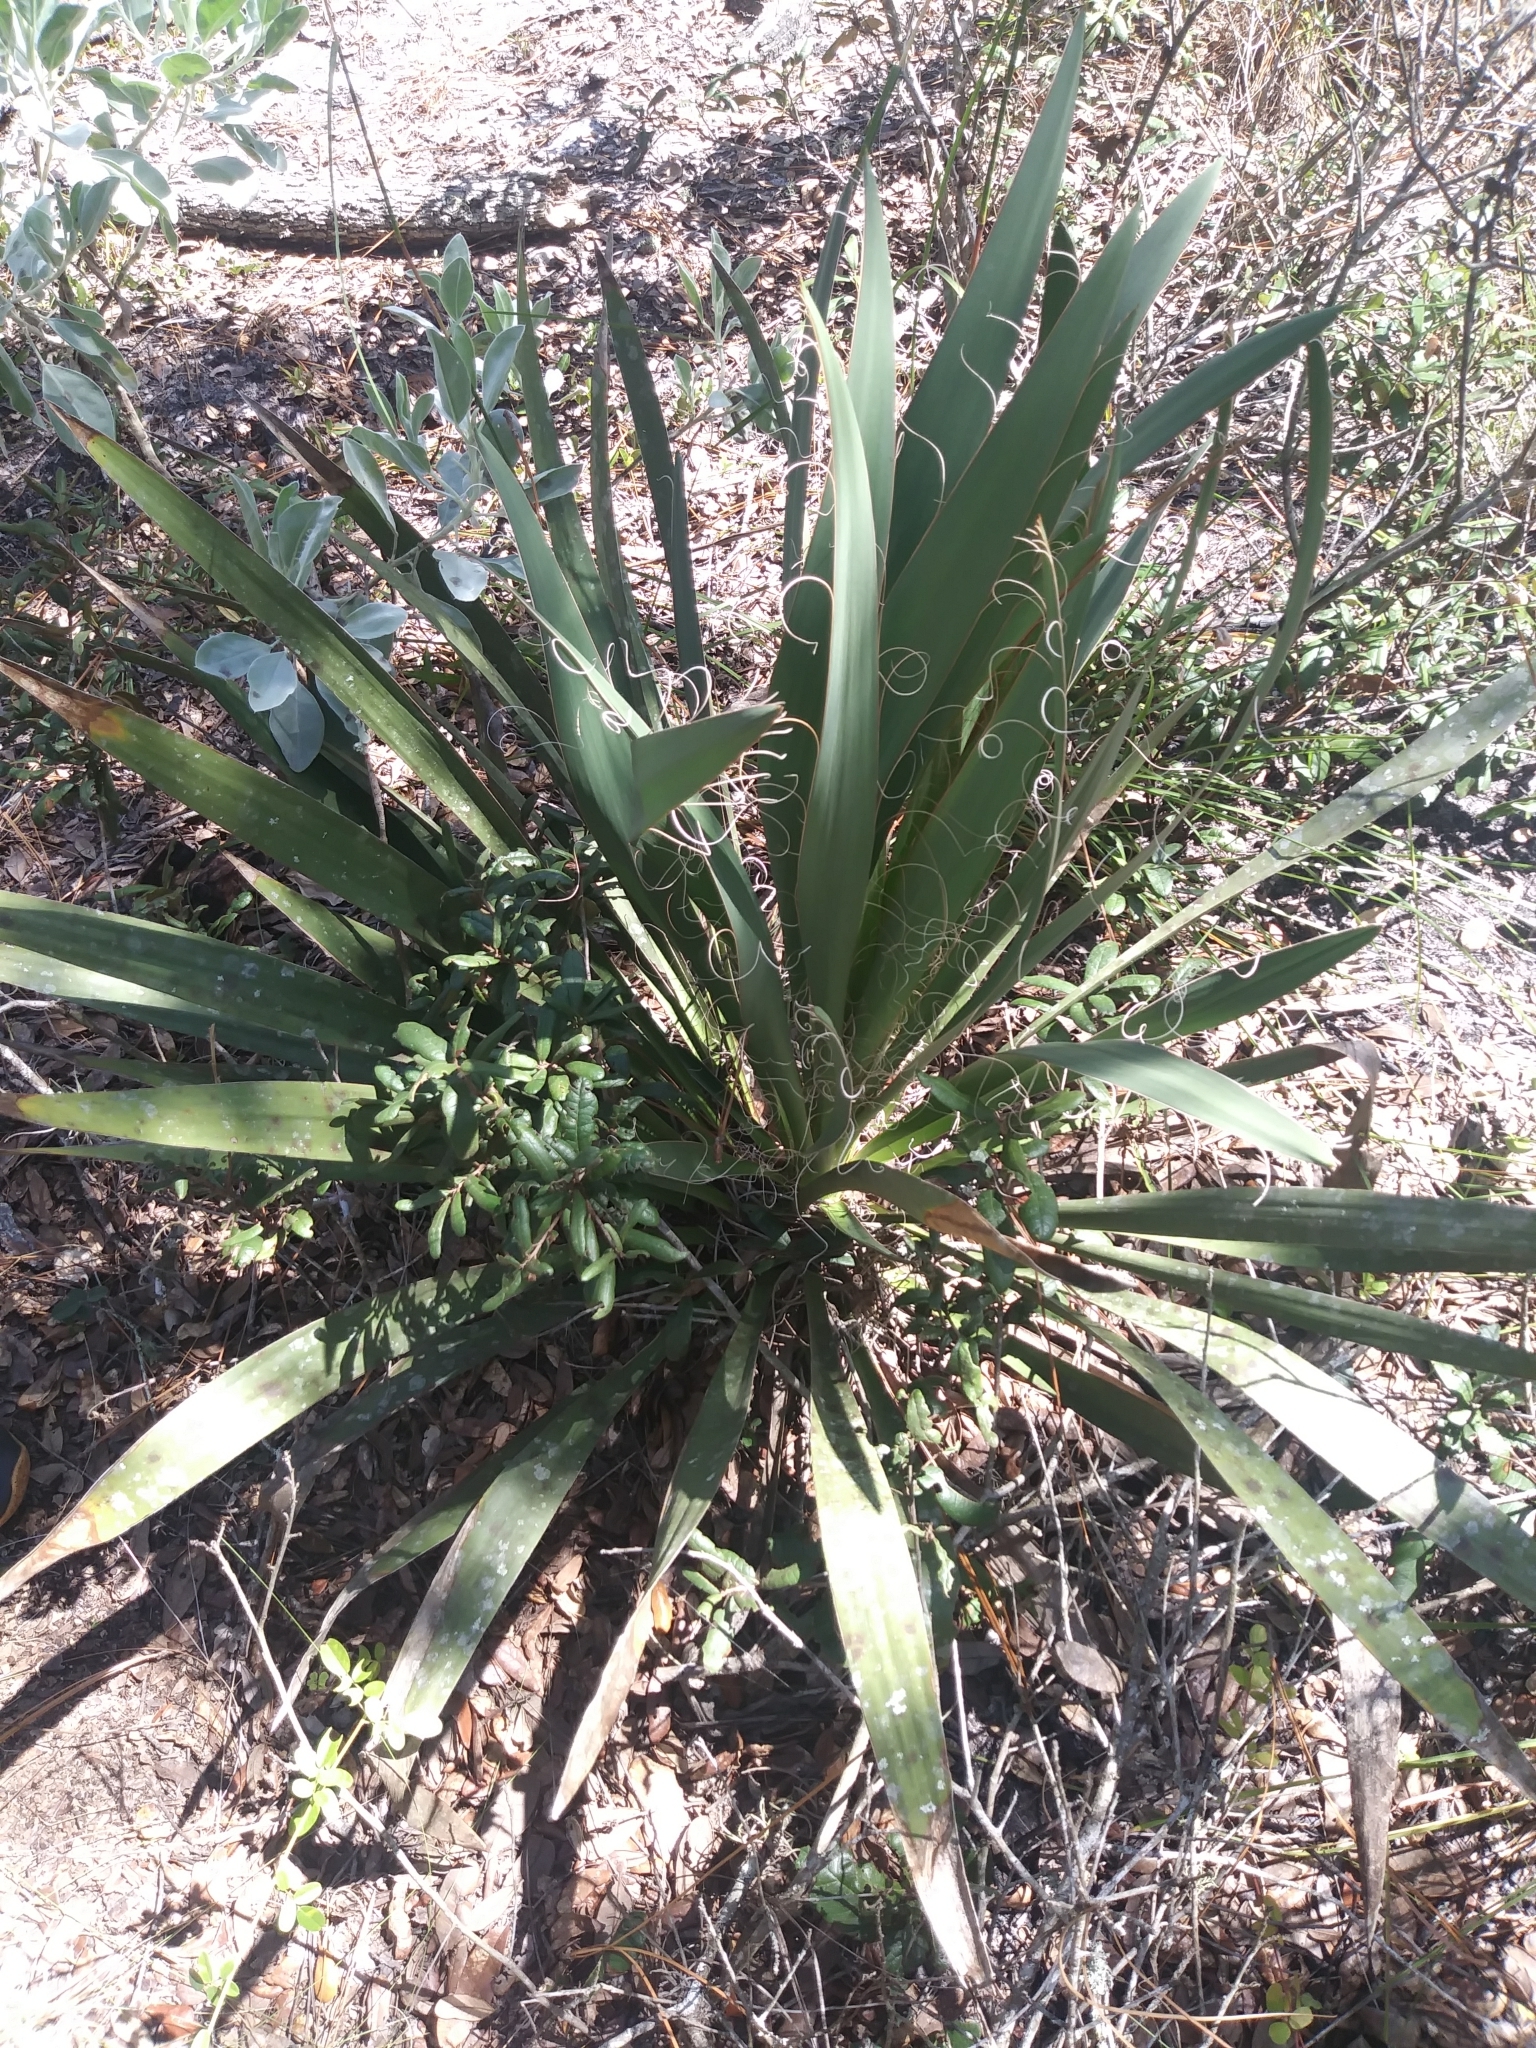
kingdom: Plantae
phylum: Tracheophyta
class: Liliopsida
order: Asparagales
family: Asparagaceae
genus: Yucca
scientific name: Yucca filamentosa
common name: Adam's-needle
